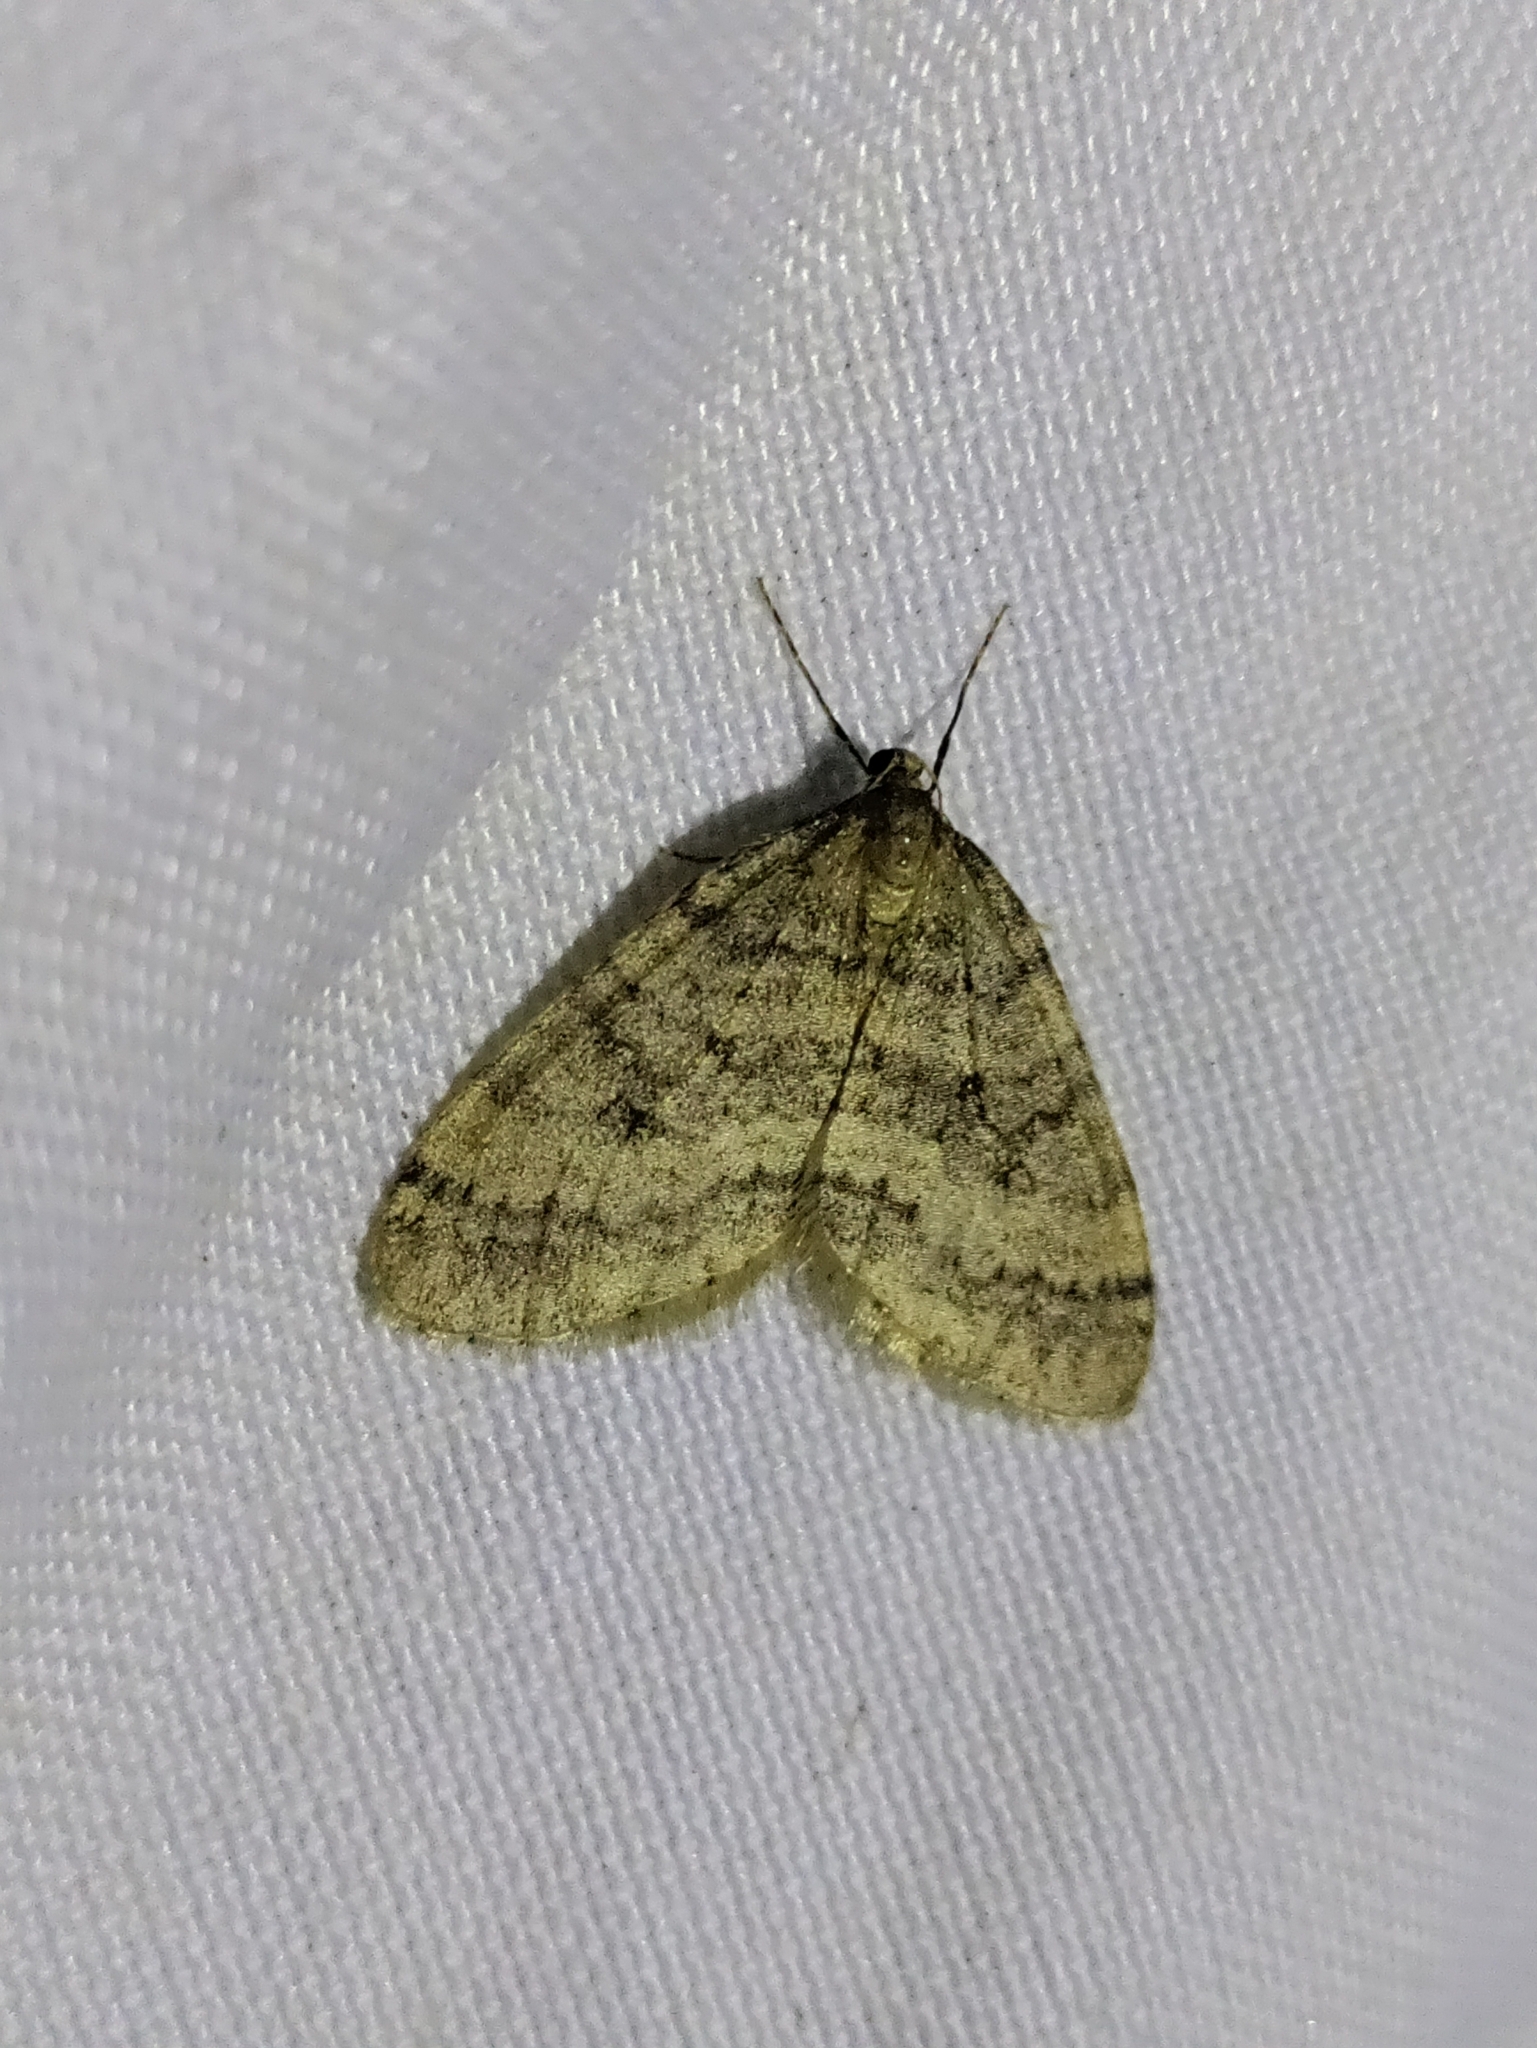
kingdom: Animalia
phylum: Arthropoda
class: Insecta
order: Lepidoptera
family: Geometridae
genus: Operophtera
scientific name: Operophtera brumata
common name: Winter moth
